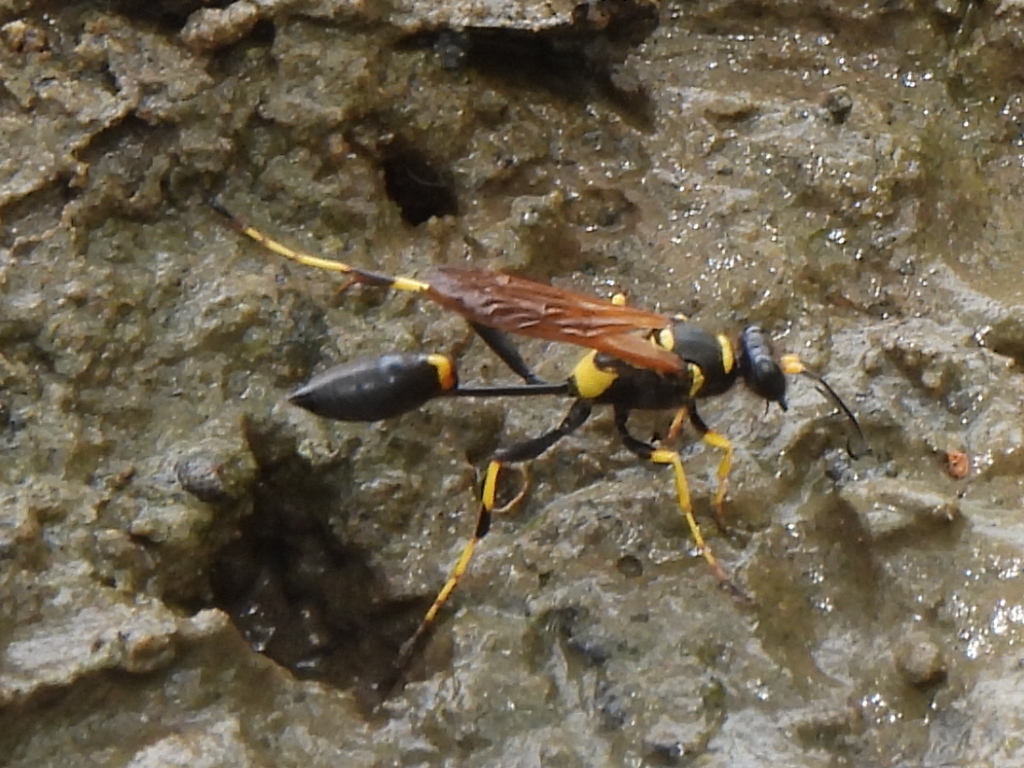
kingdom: Animalia
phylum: Arthropoda
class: Insecta
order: Hymenoptera
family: Sphecidae
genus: Sceliphron
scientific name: Sceliphron caementarium
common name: Mud dauber
